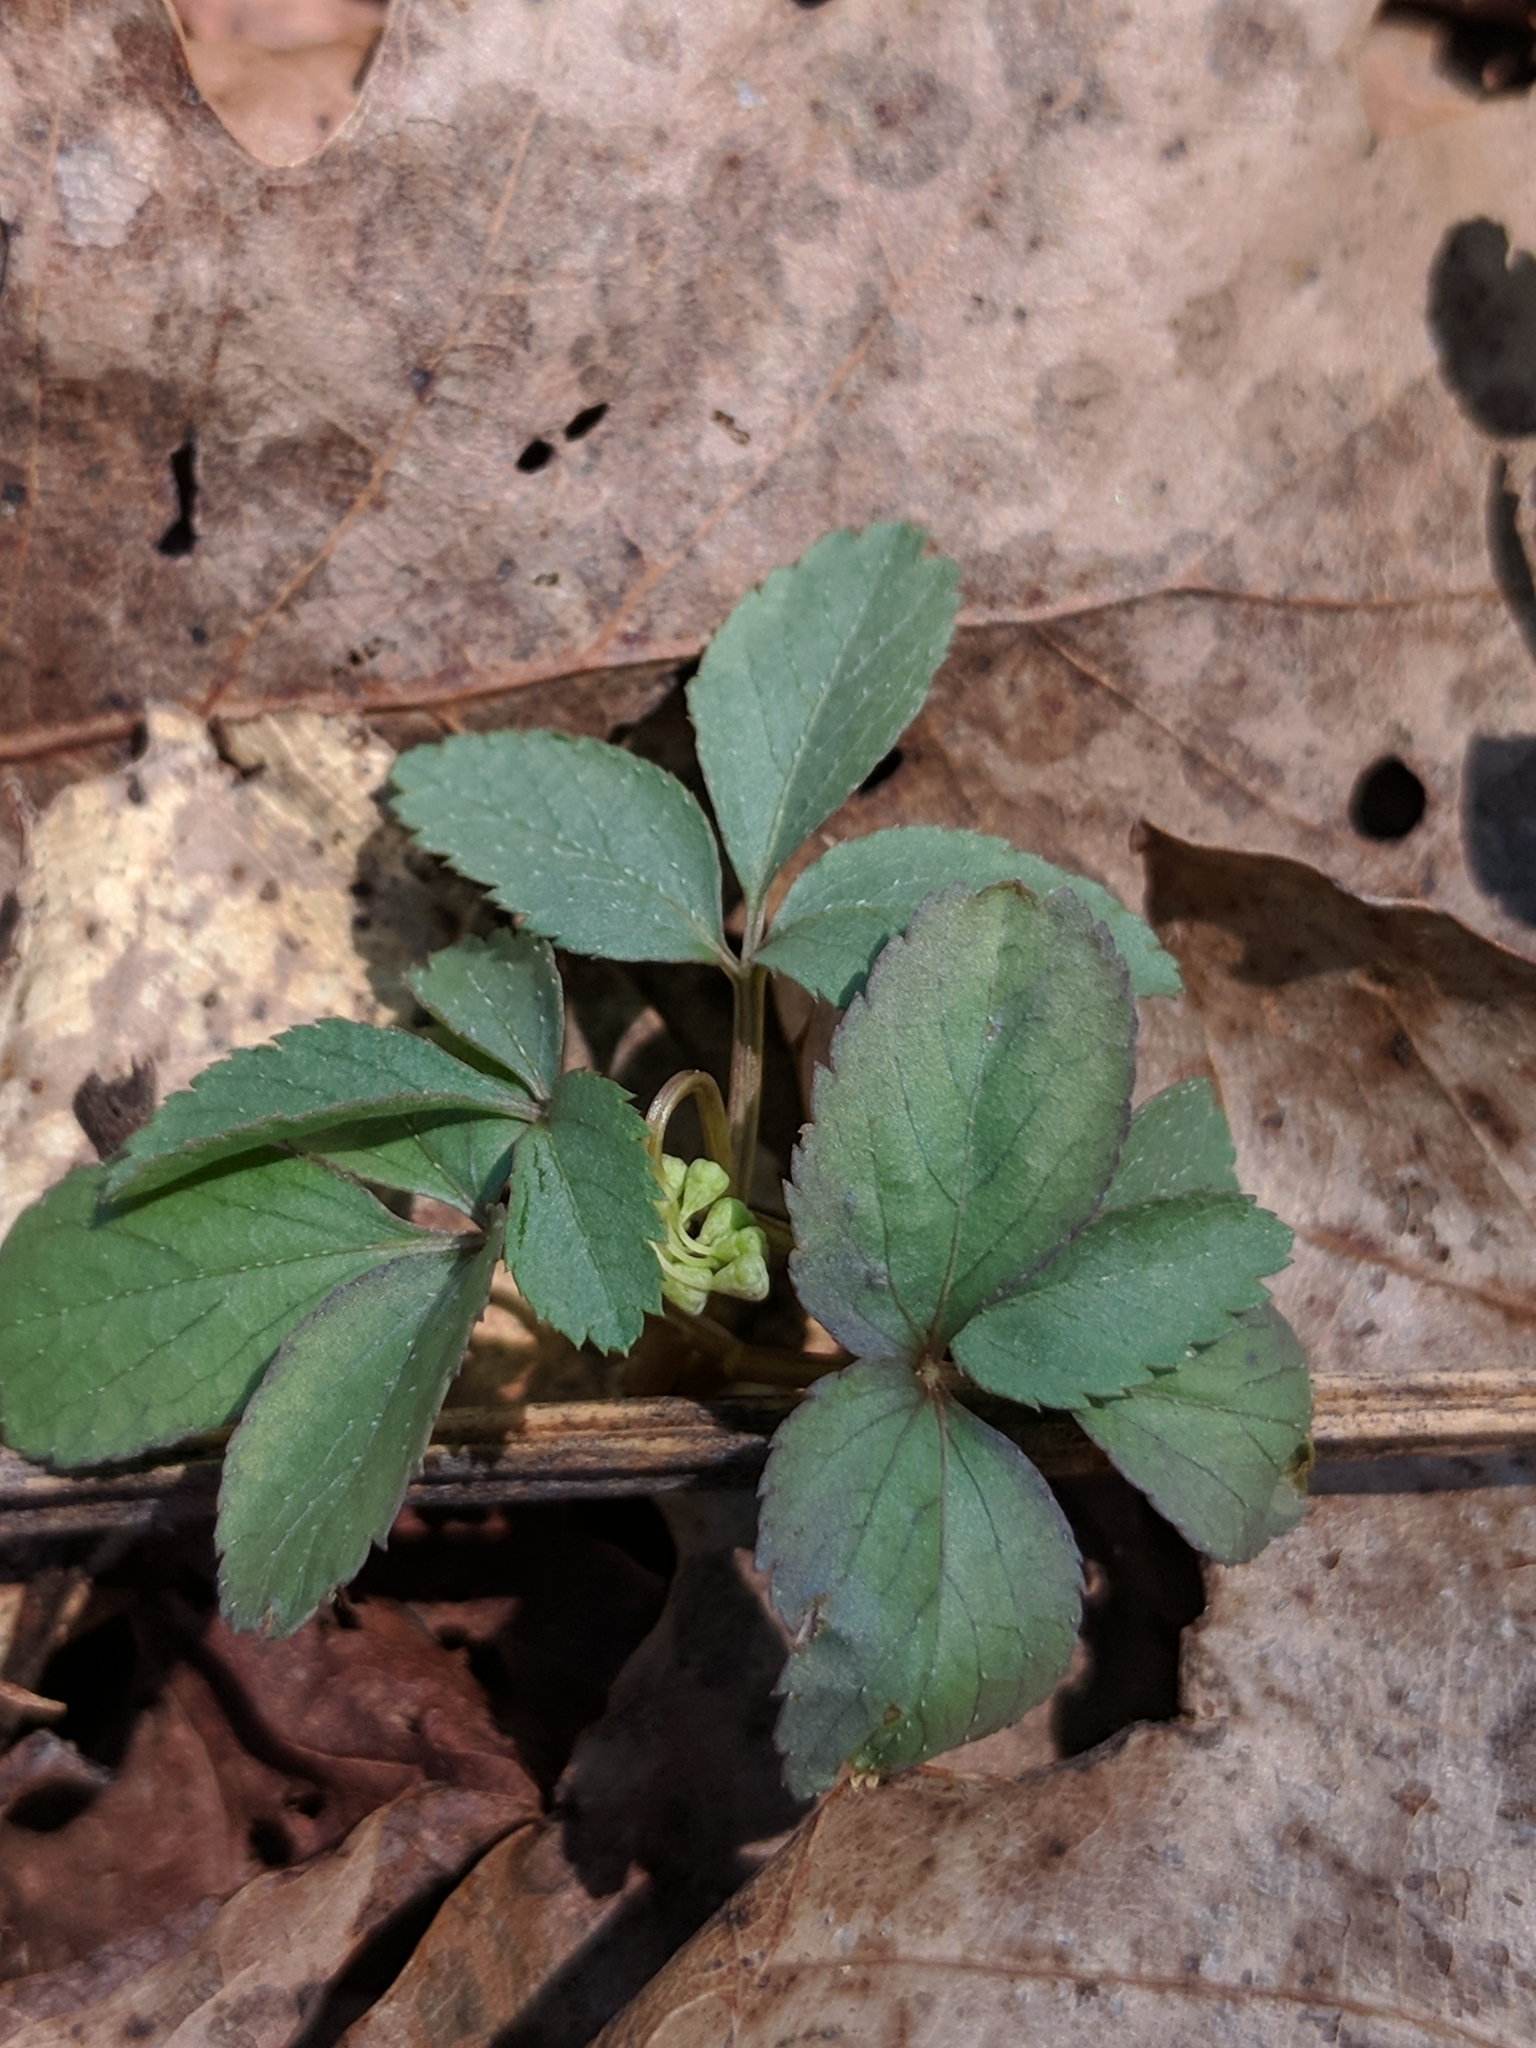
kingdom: Plantae
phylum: Tracheophyta
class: Magnoliopsida
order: Apiales
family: Araliaceae
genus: Panax
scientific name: Panax trifolius
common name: Dwarf ginseng
